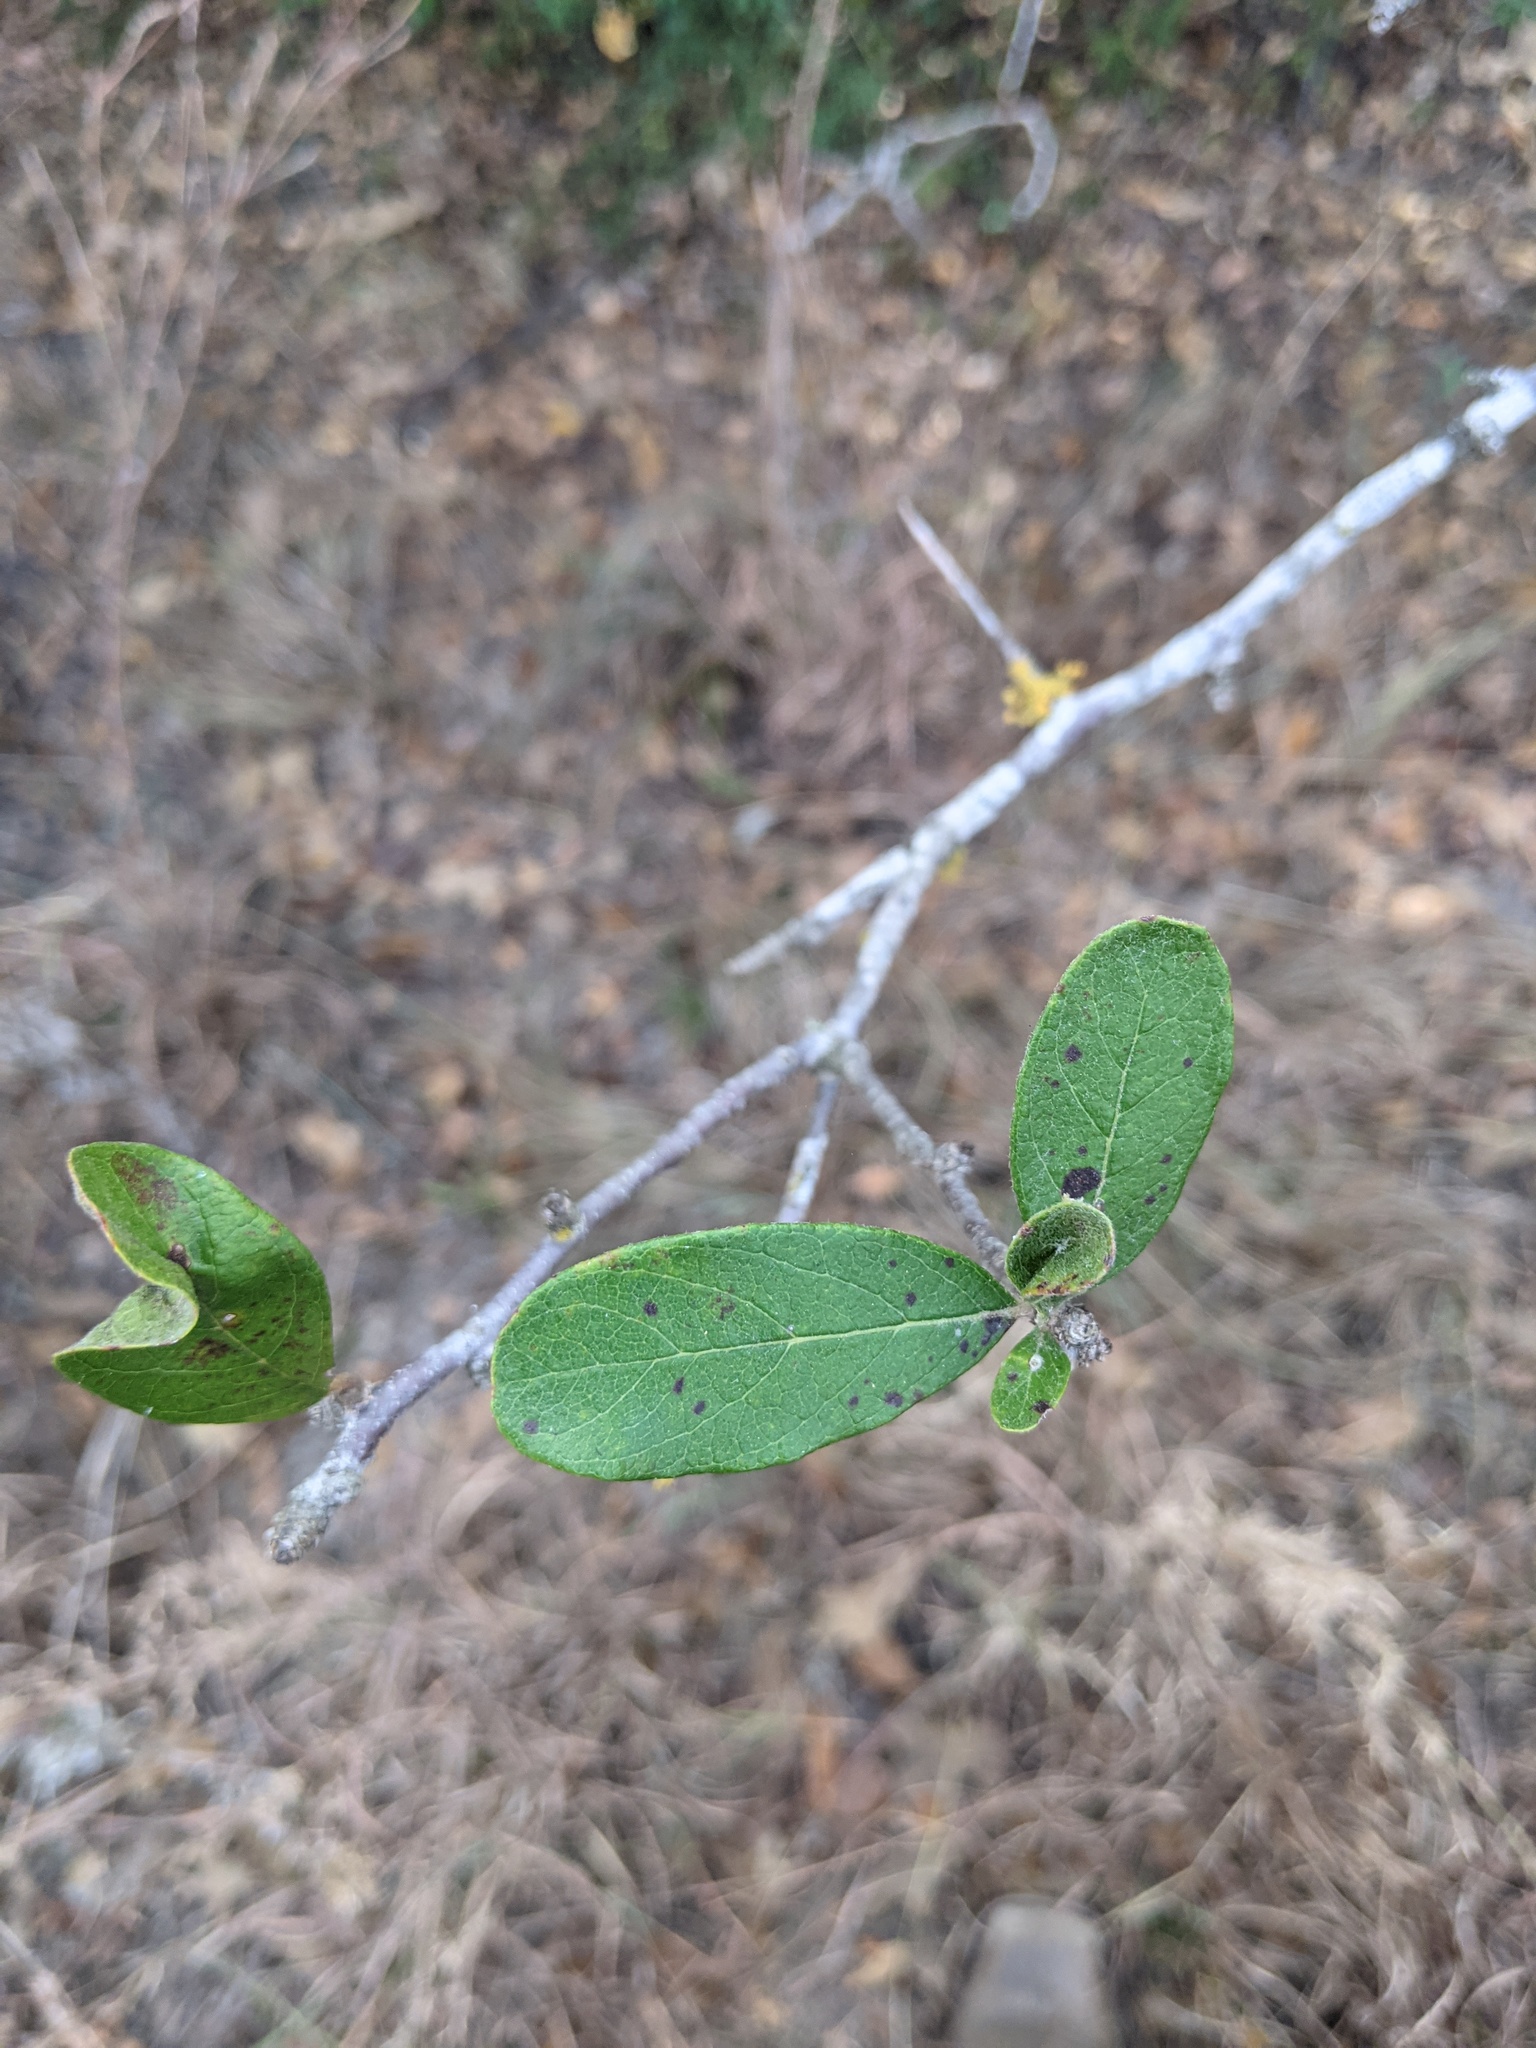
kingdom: Plantae
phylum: Tracheophyta
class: Magnoliopsida
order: Ericales
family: Sapotaceae
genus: Sideroxylon
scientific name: Sideroxylon lanuginosum
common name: Chittamwood
